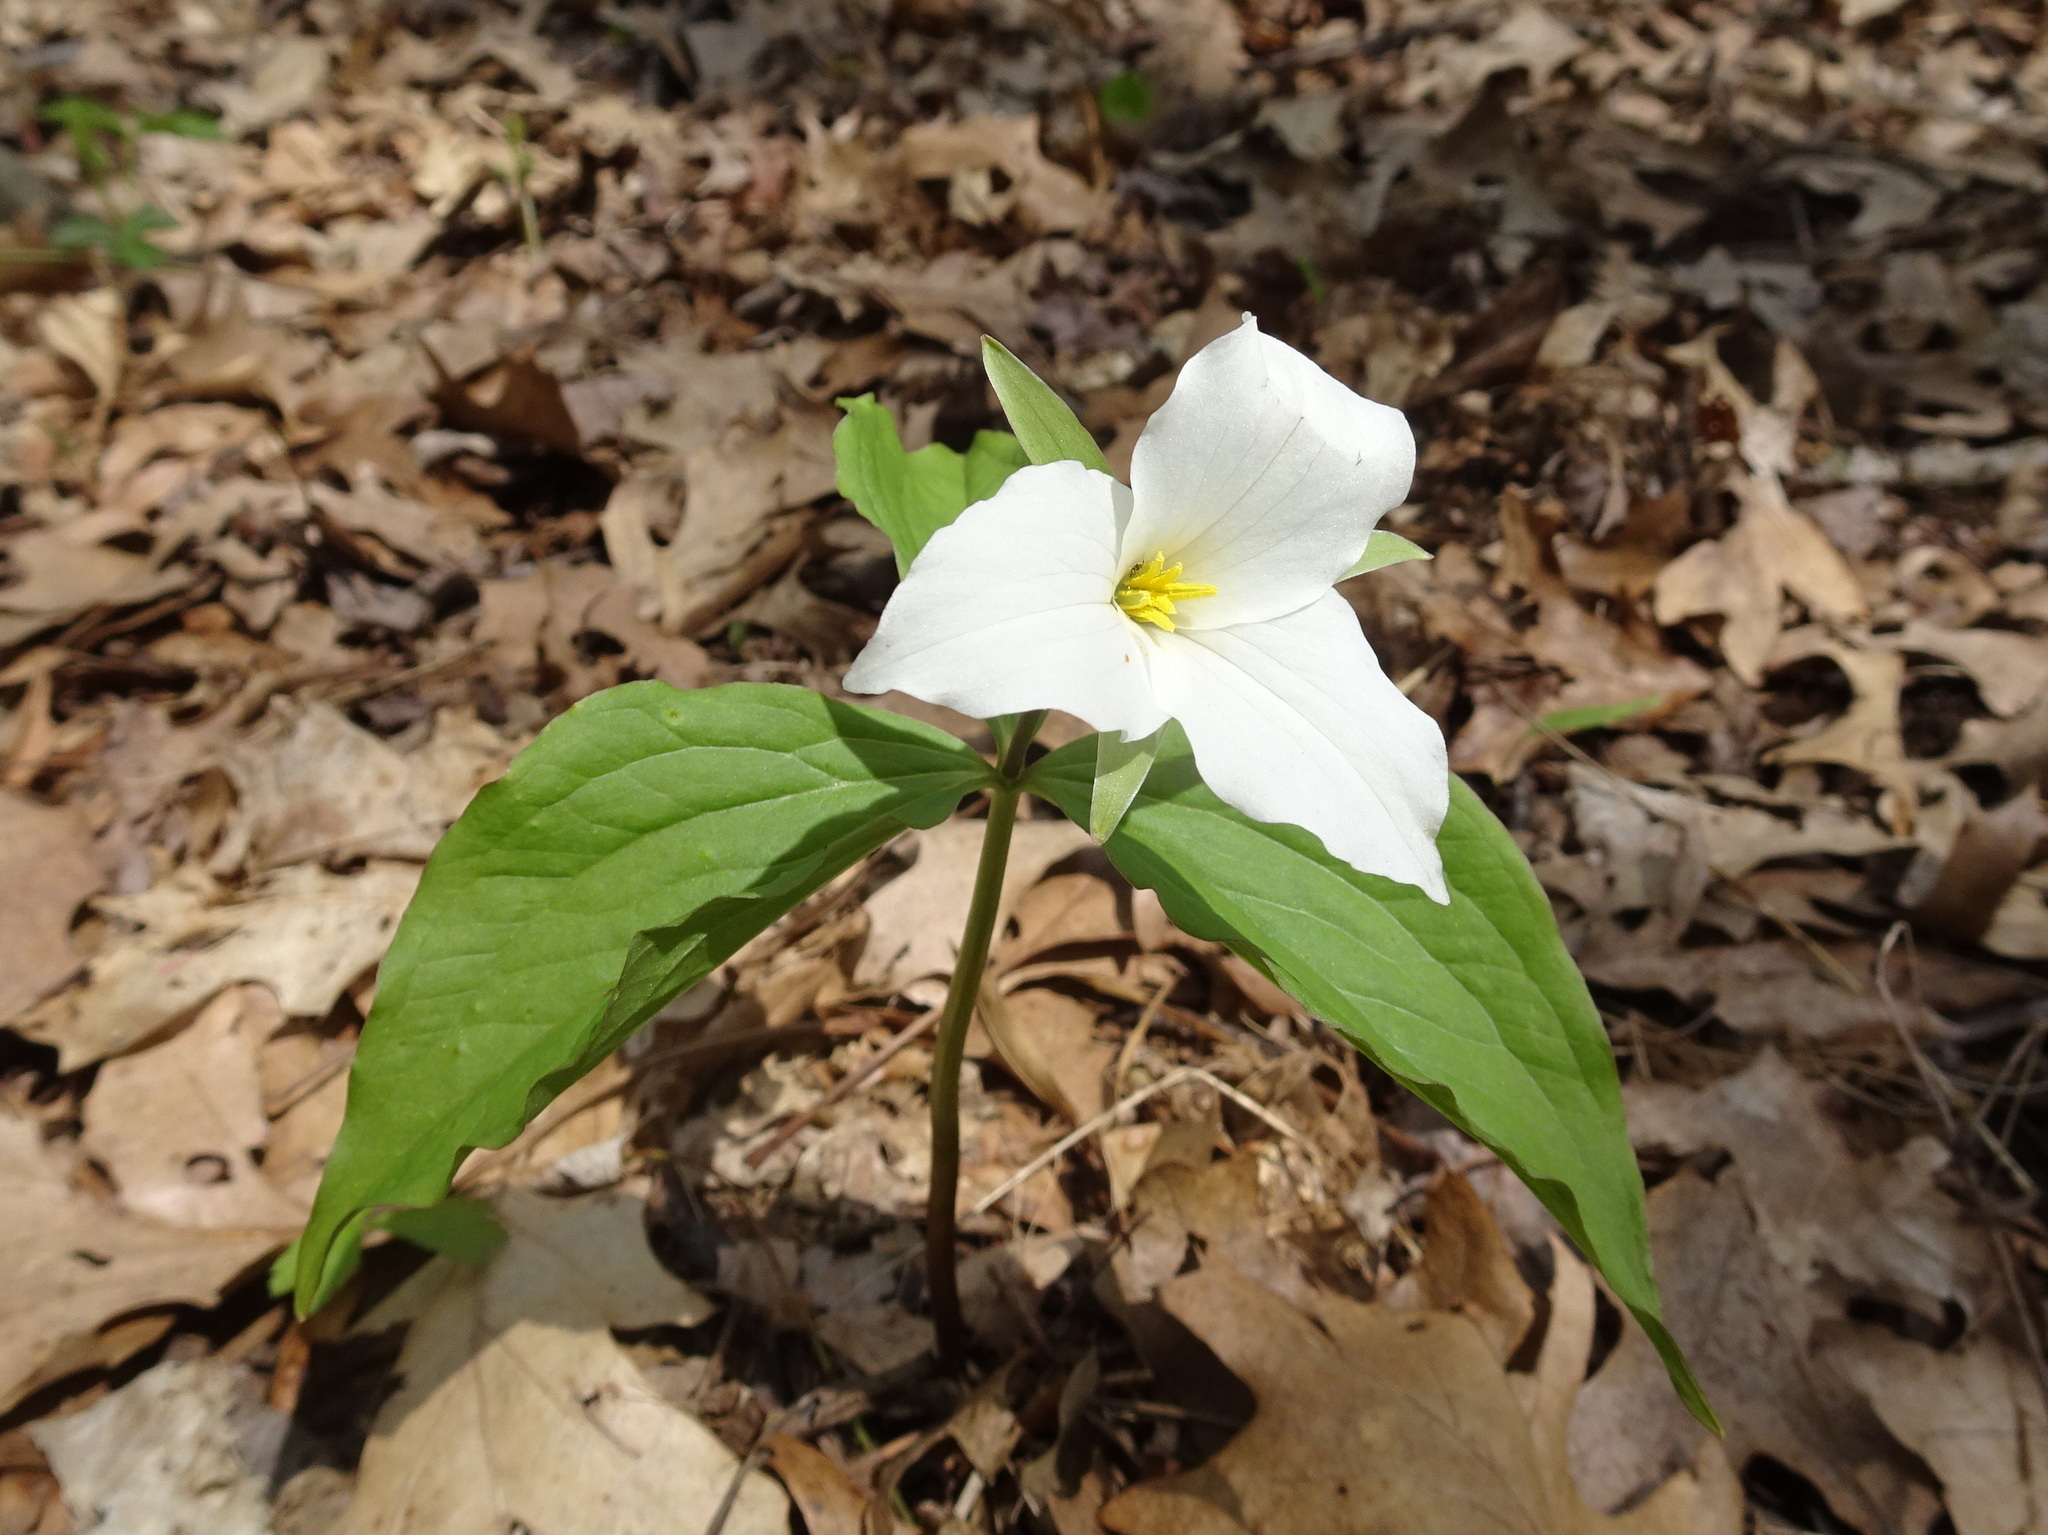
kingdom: Plantae
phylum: Tracheophyta
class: Liliopsida
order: Liliales
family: Melanthiaceae
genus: Trillium
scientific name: Trillium grandiflorum
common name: Great white trillium
